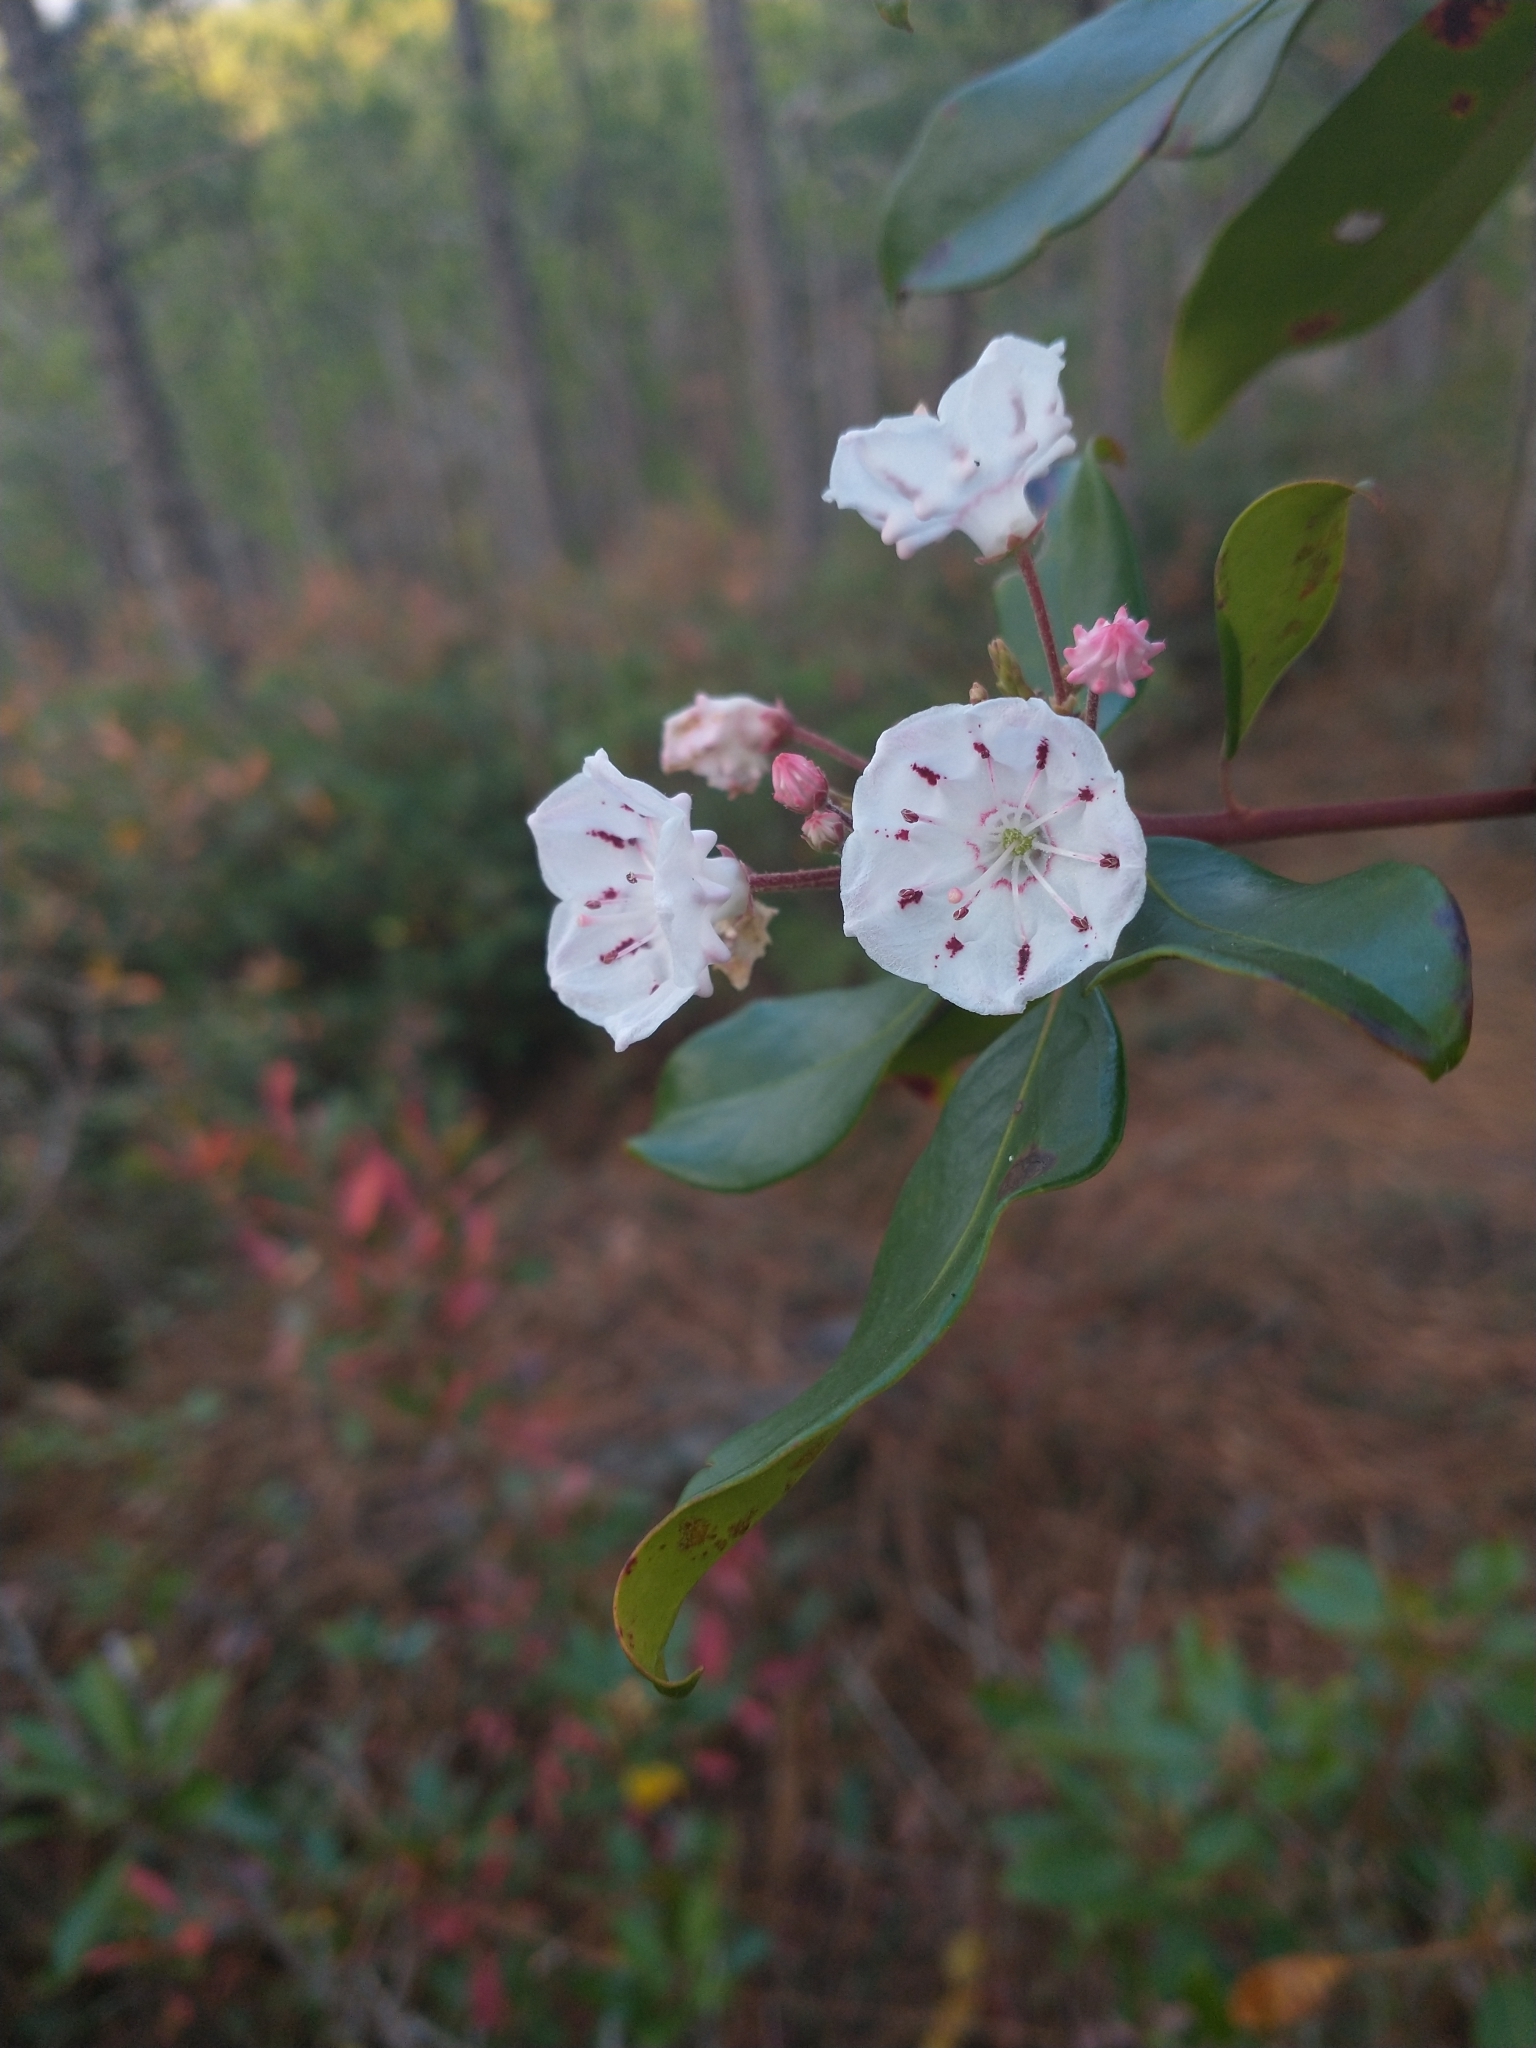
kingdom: Plantae
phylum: Tracheophyta
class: Magnoliopsida
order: Ericales
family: Ericaceae
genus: Kalmia
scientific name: Kalmia latifolia
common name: Mountain-laurel
